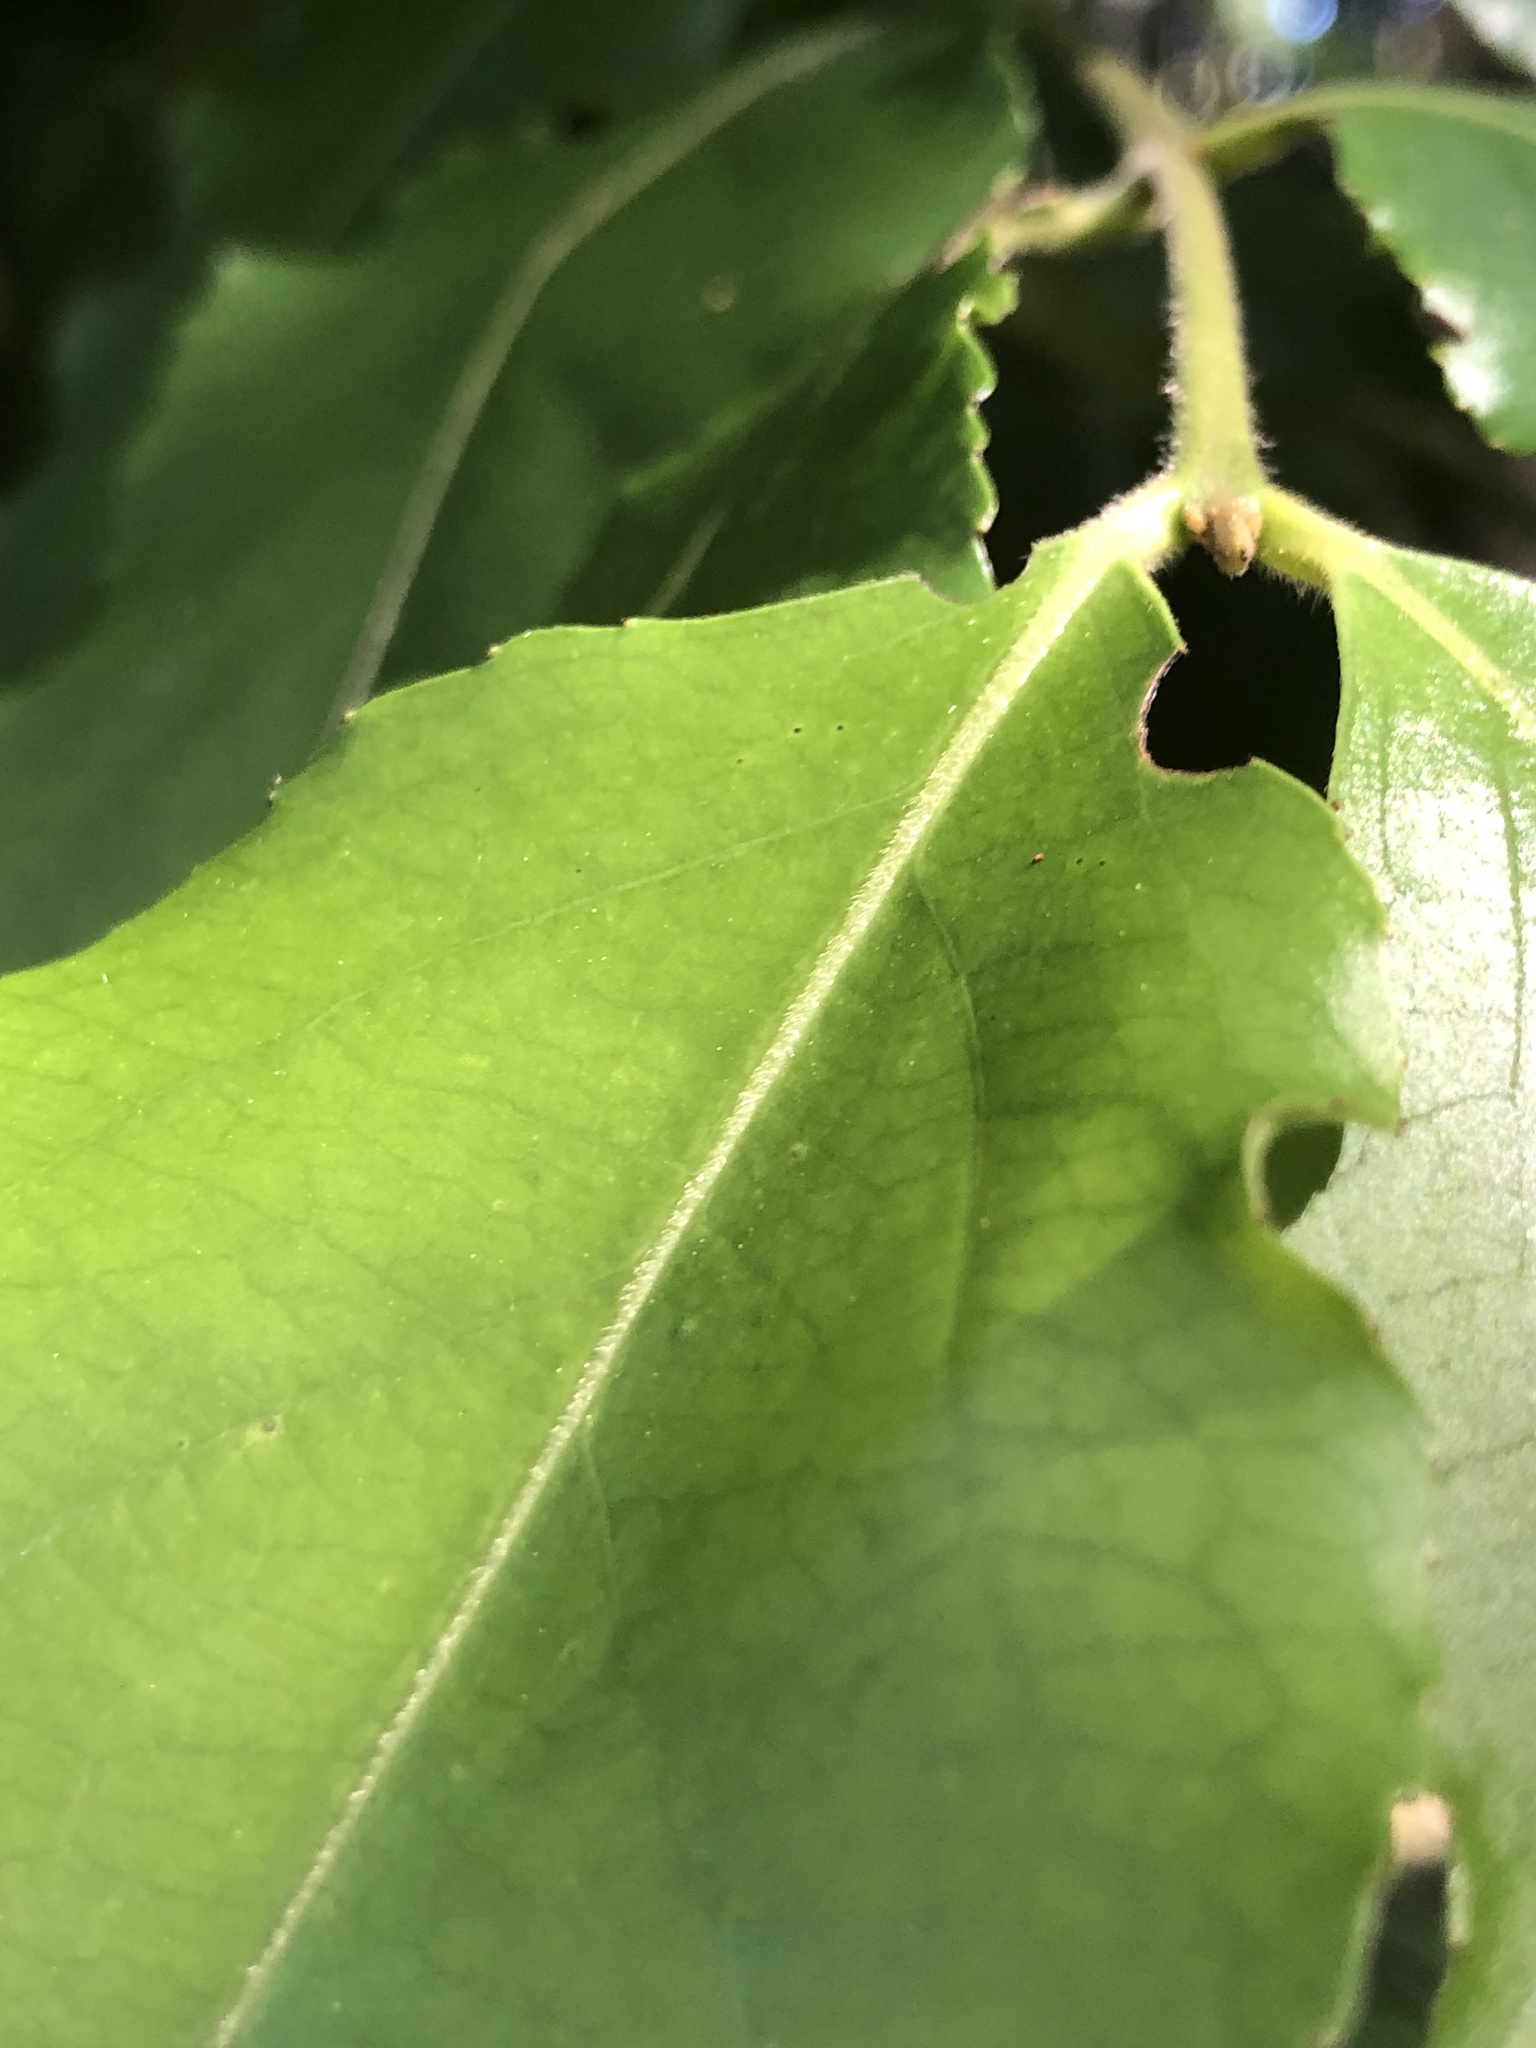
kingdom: Plantae
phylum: Tracheophyta
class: Magnoliopsida
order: Laurales
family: Atherospermataceae
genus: Daphnandra
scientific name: Daphnandra melasmena
